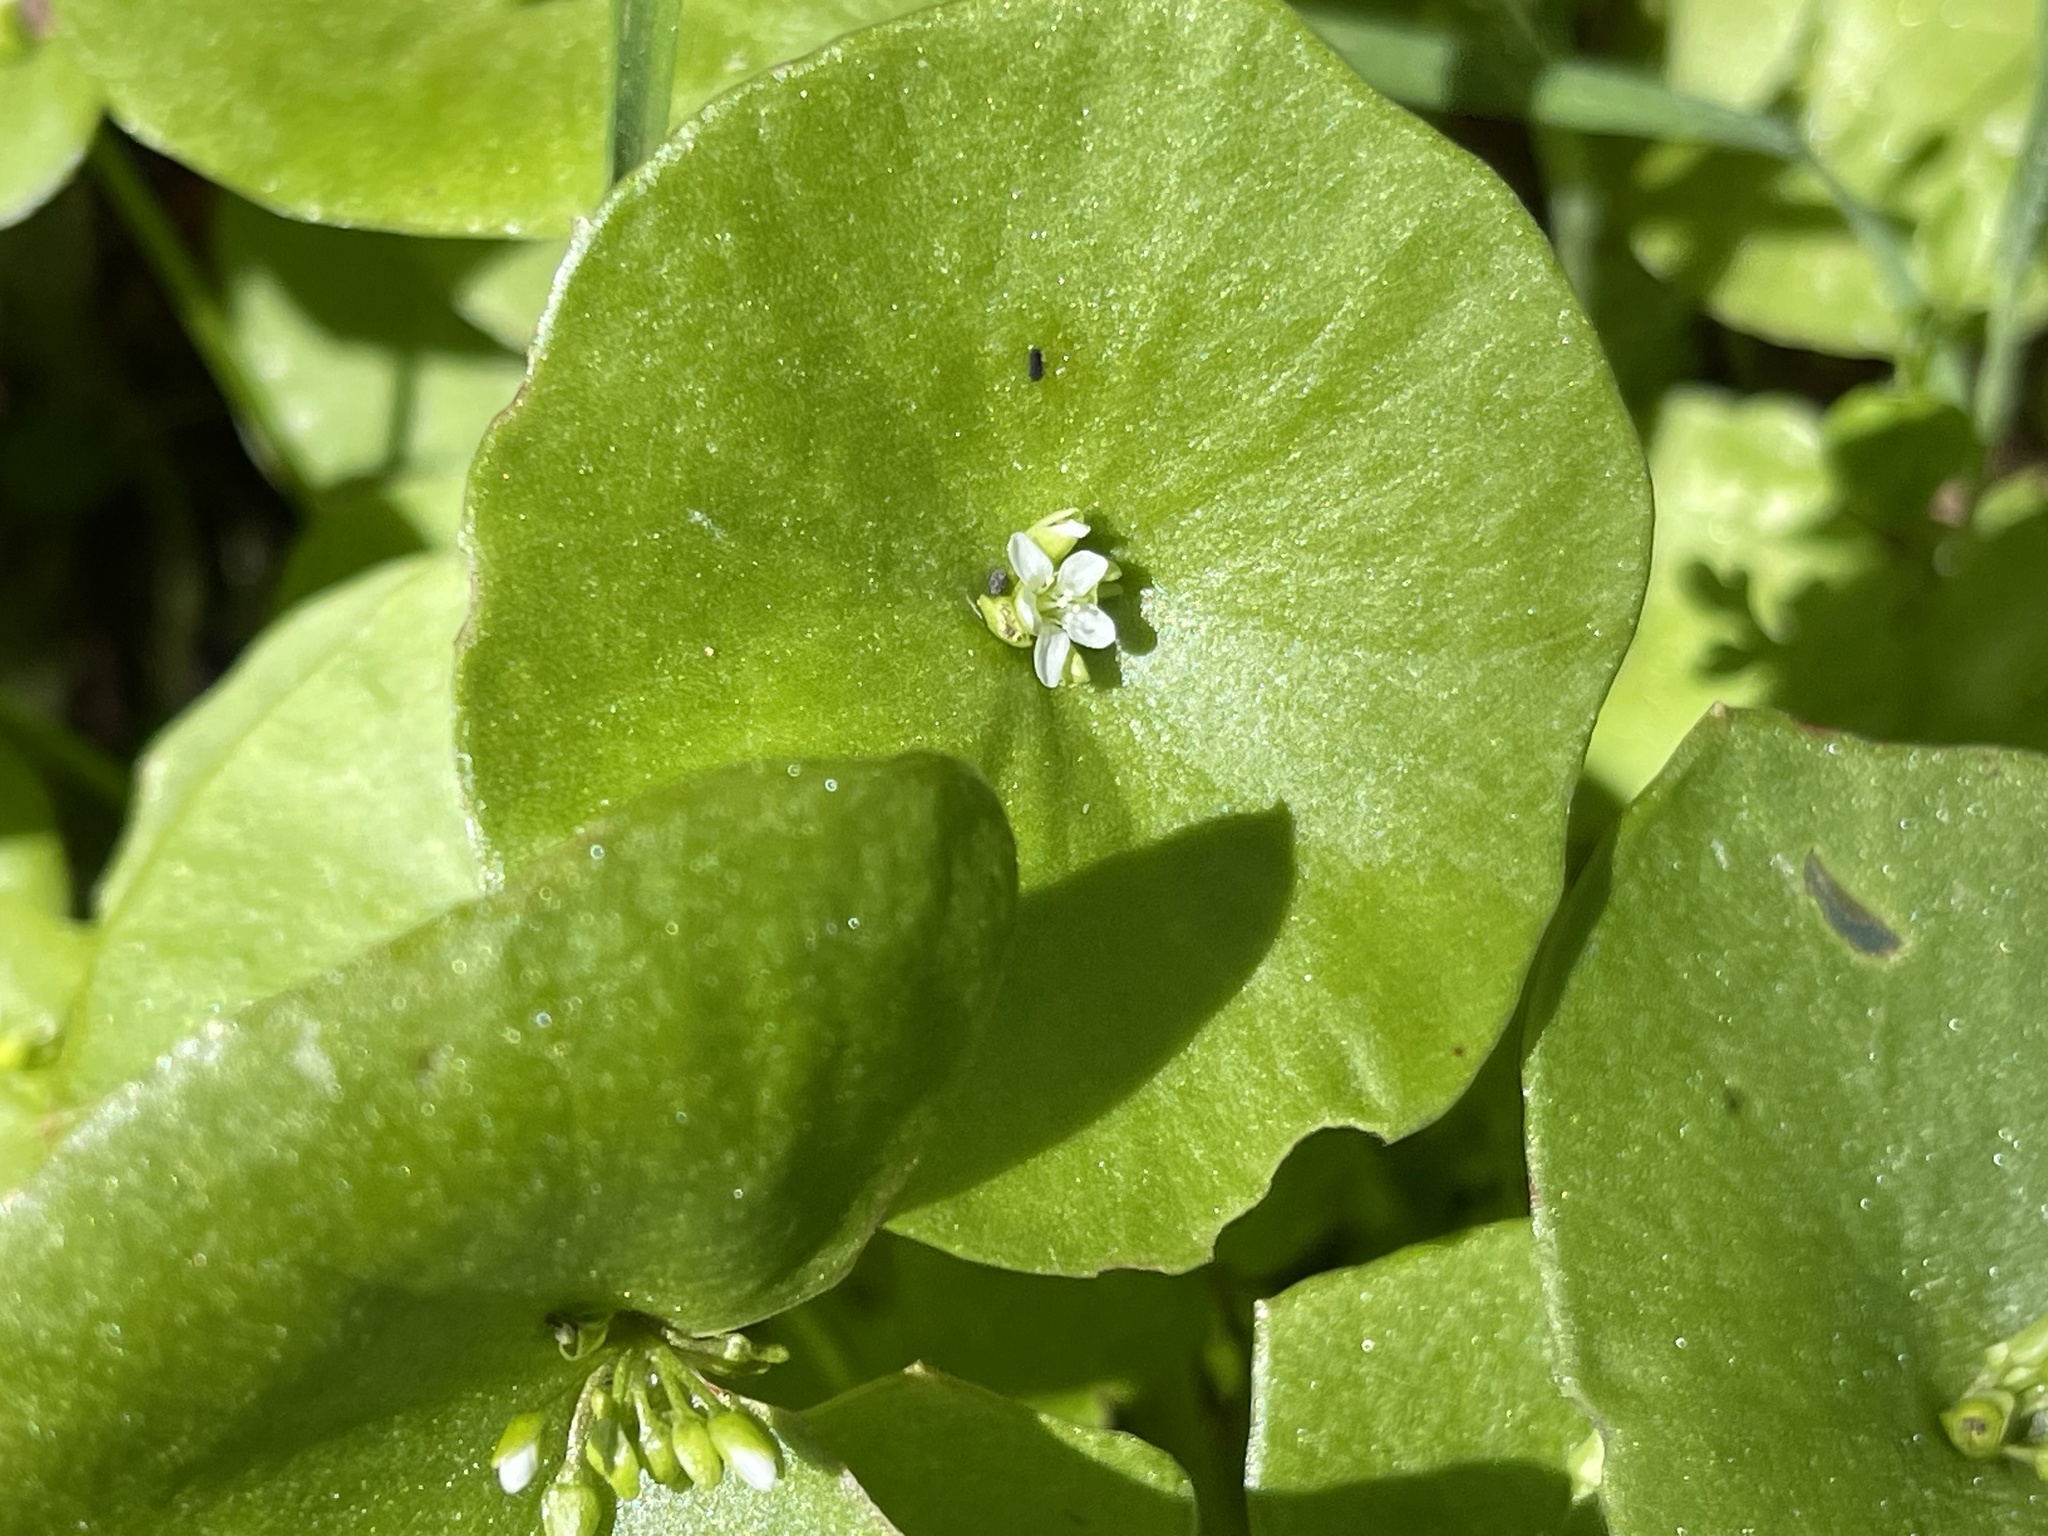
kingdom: Plantae
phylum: Tracheophyta
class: Magnoliopsida
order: Caryophyllales
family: Montiaceae
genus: Claytonia
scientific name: Claytonia perfoliata
